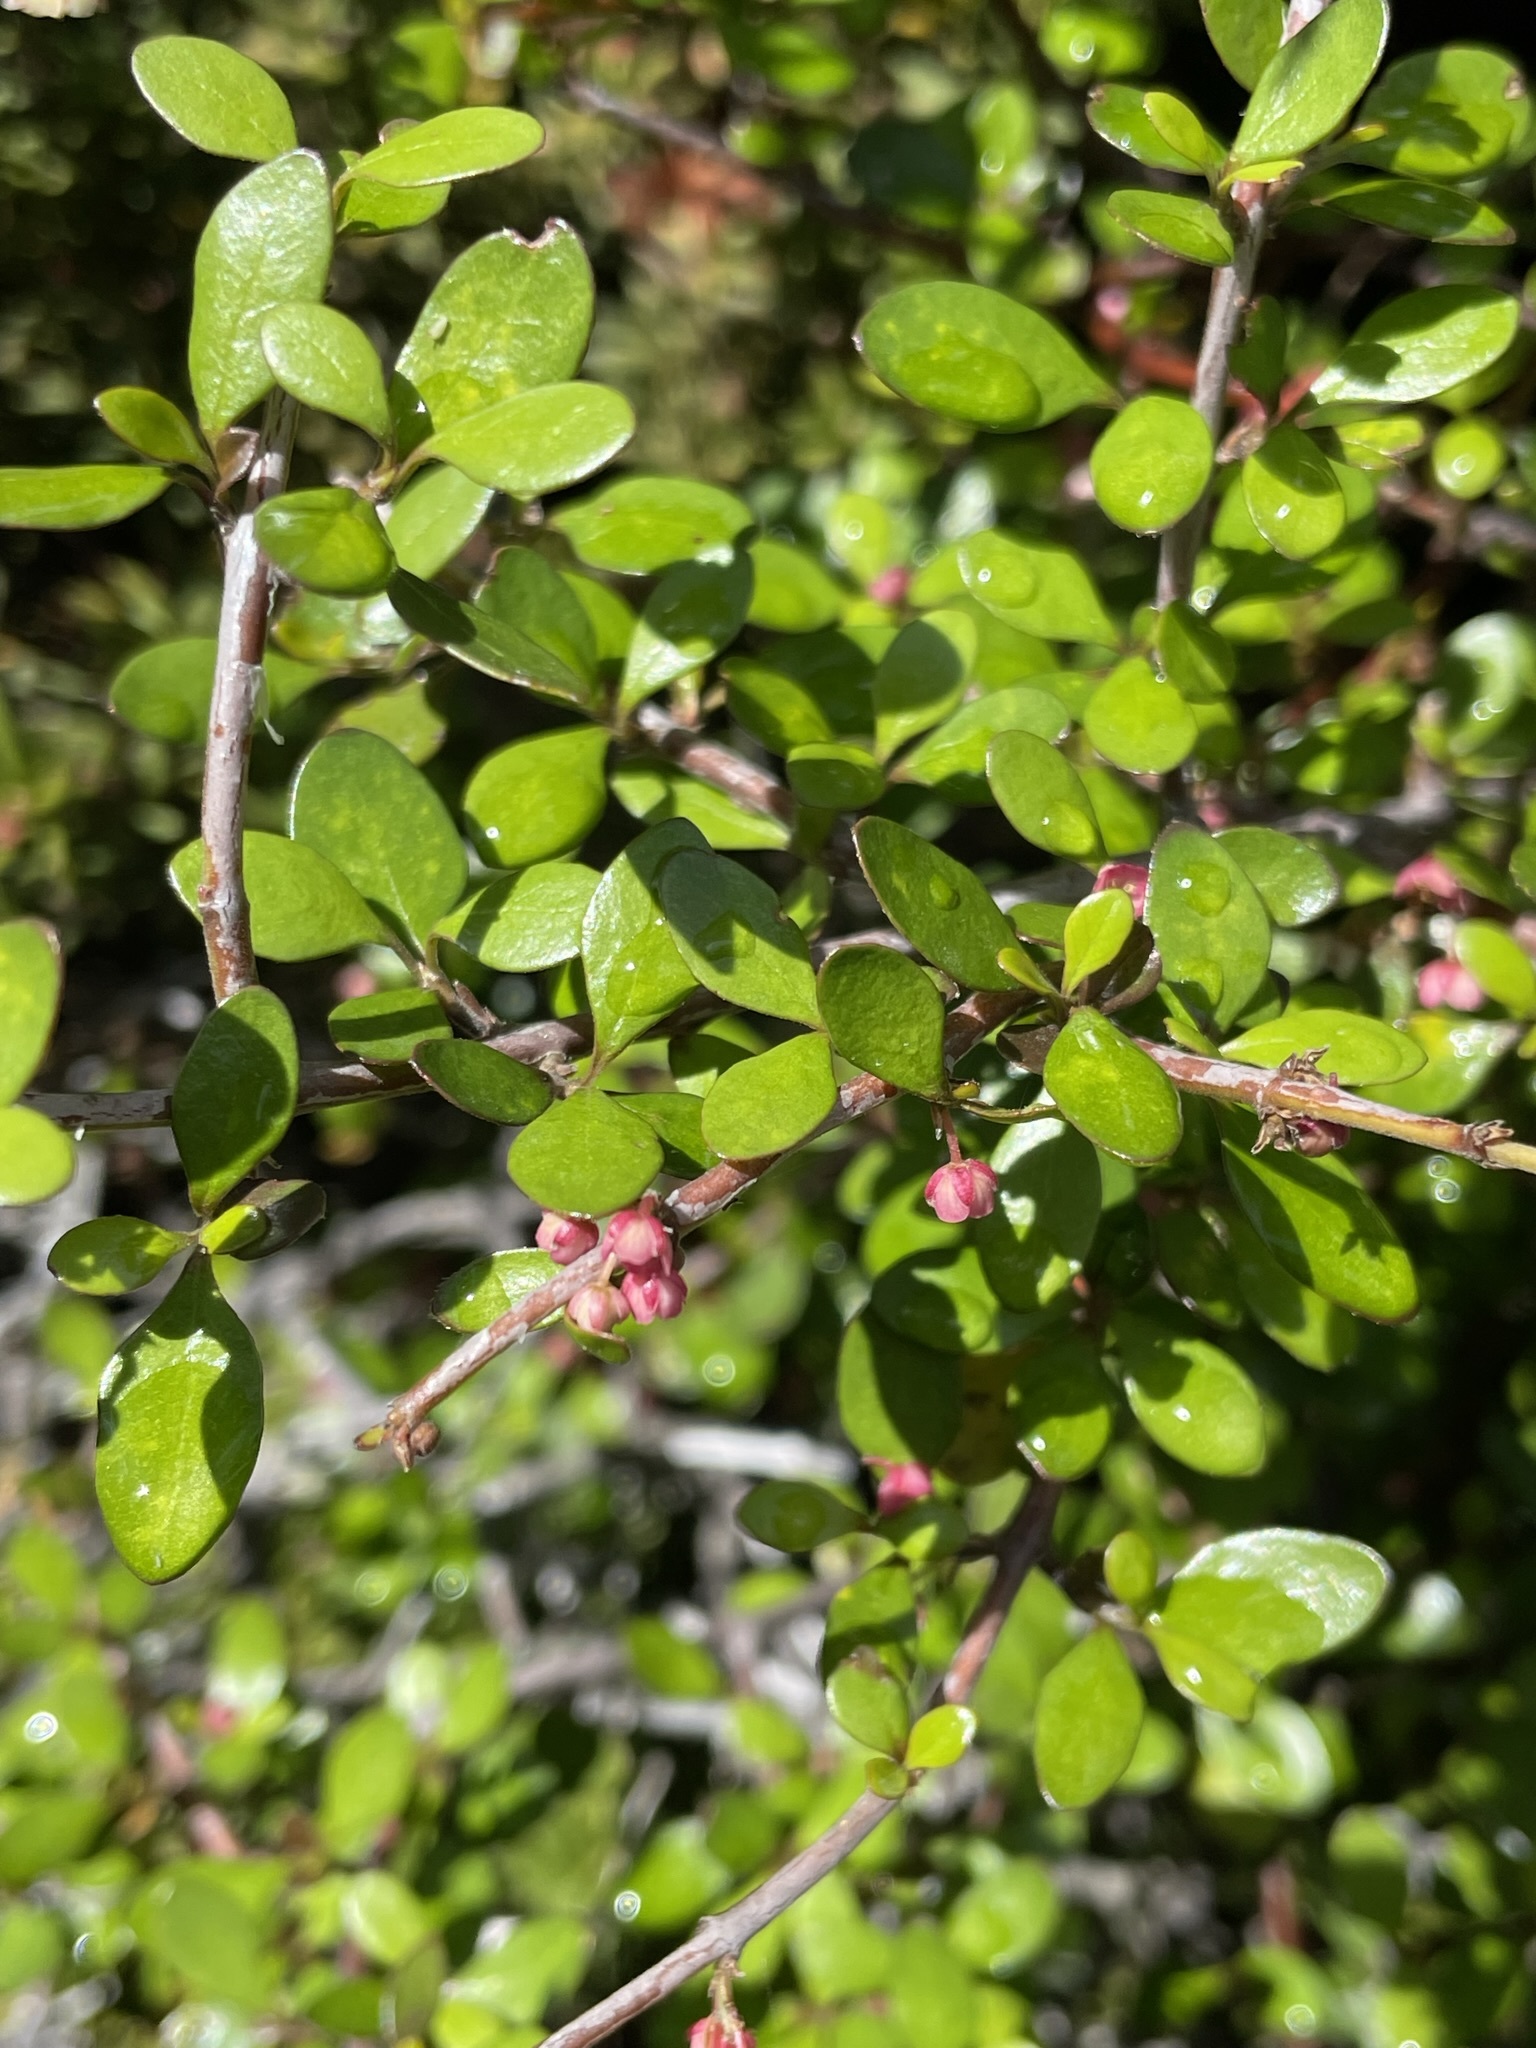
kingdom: Plantae
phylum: Tracheophyta
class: Magnoliopsida
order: Oxalidales
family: Elaeocarpaceae
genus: Aristotelia
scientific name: Aristotelia fruticosa
